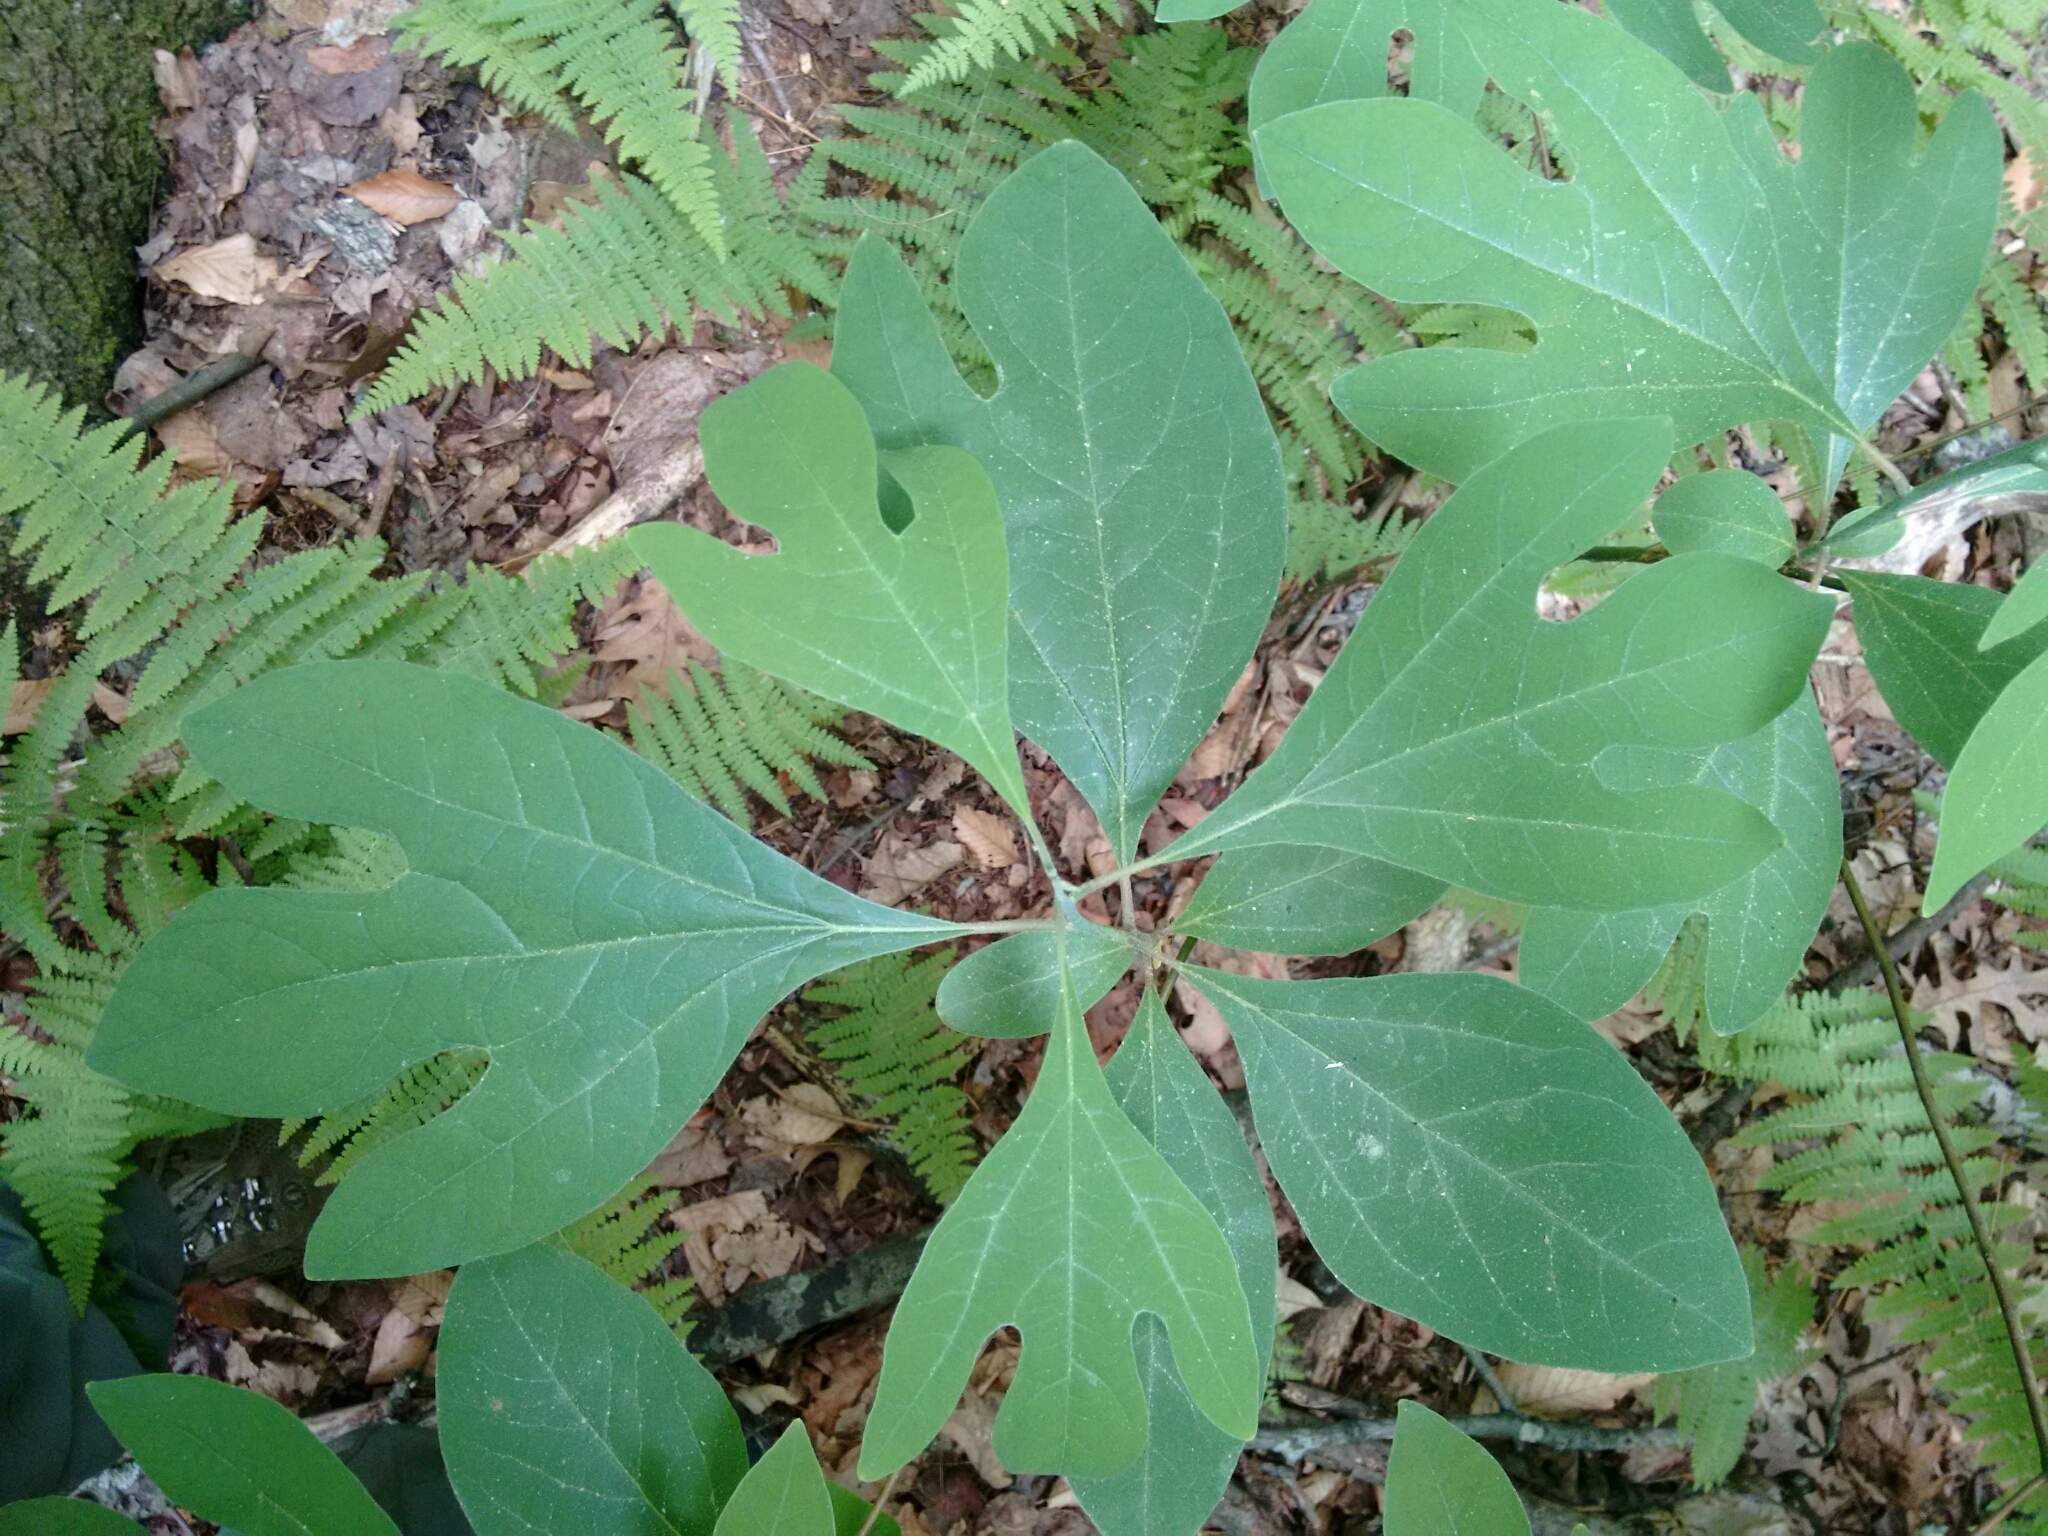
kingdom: Plantae
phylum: Tracheophyta
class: Magnoliopsida
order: Laurales
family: Lauraceae
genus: Sassafras
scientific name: Sassafras albidum
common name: Sassafras
